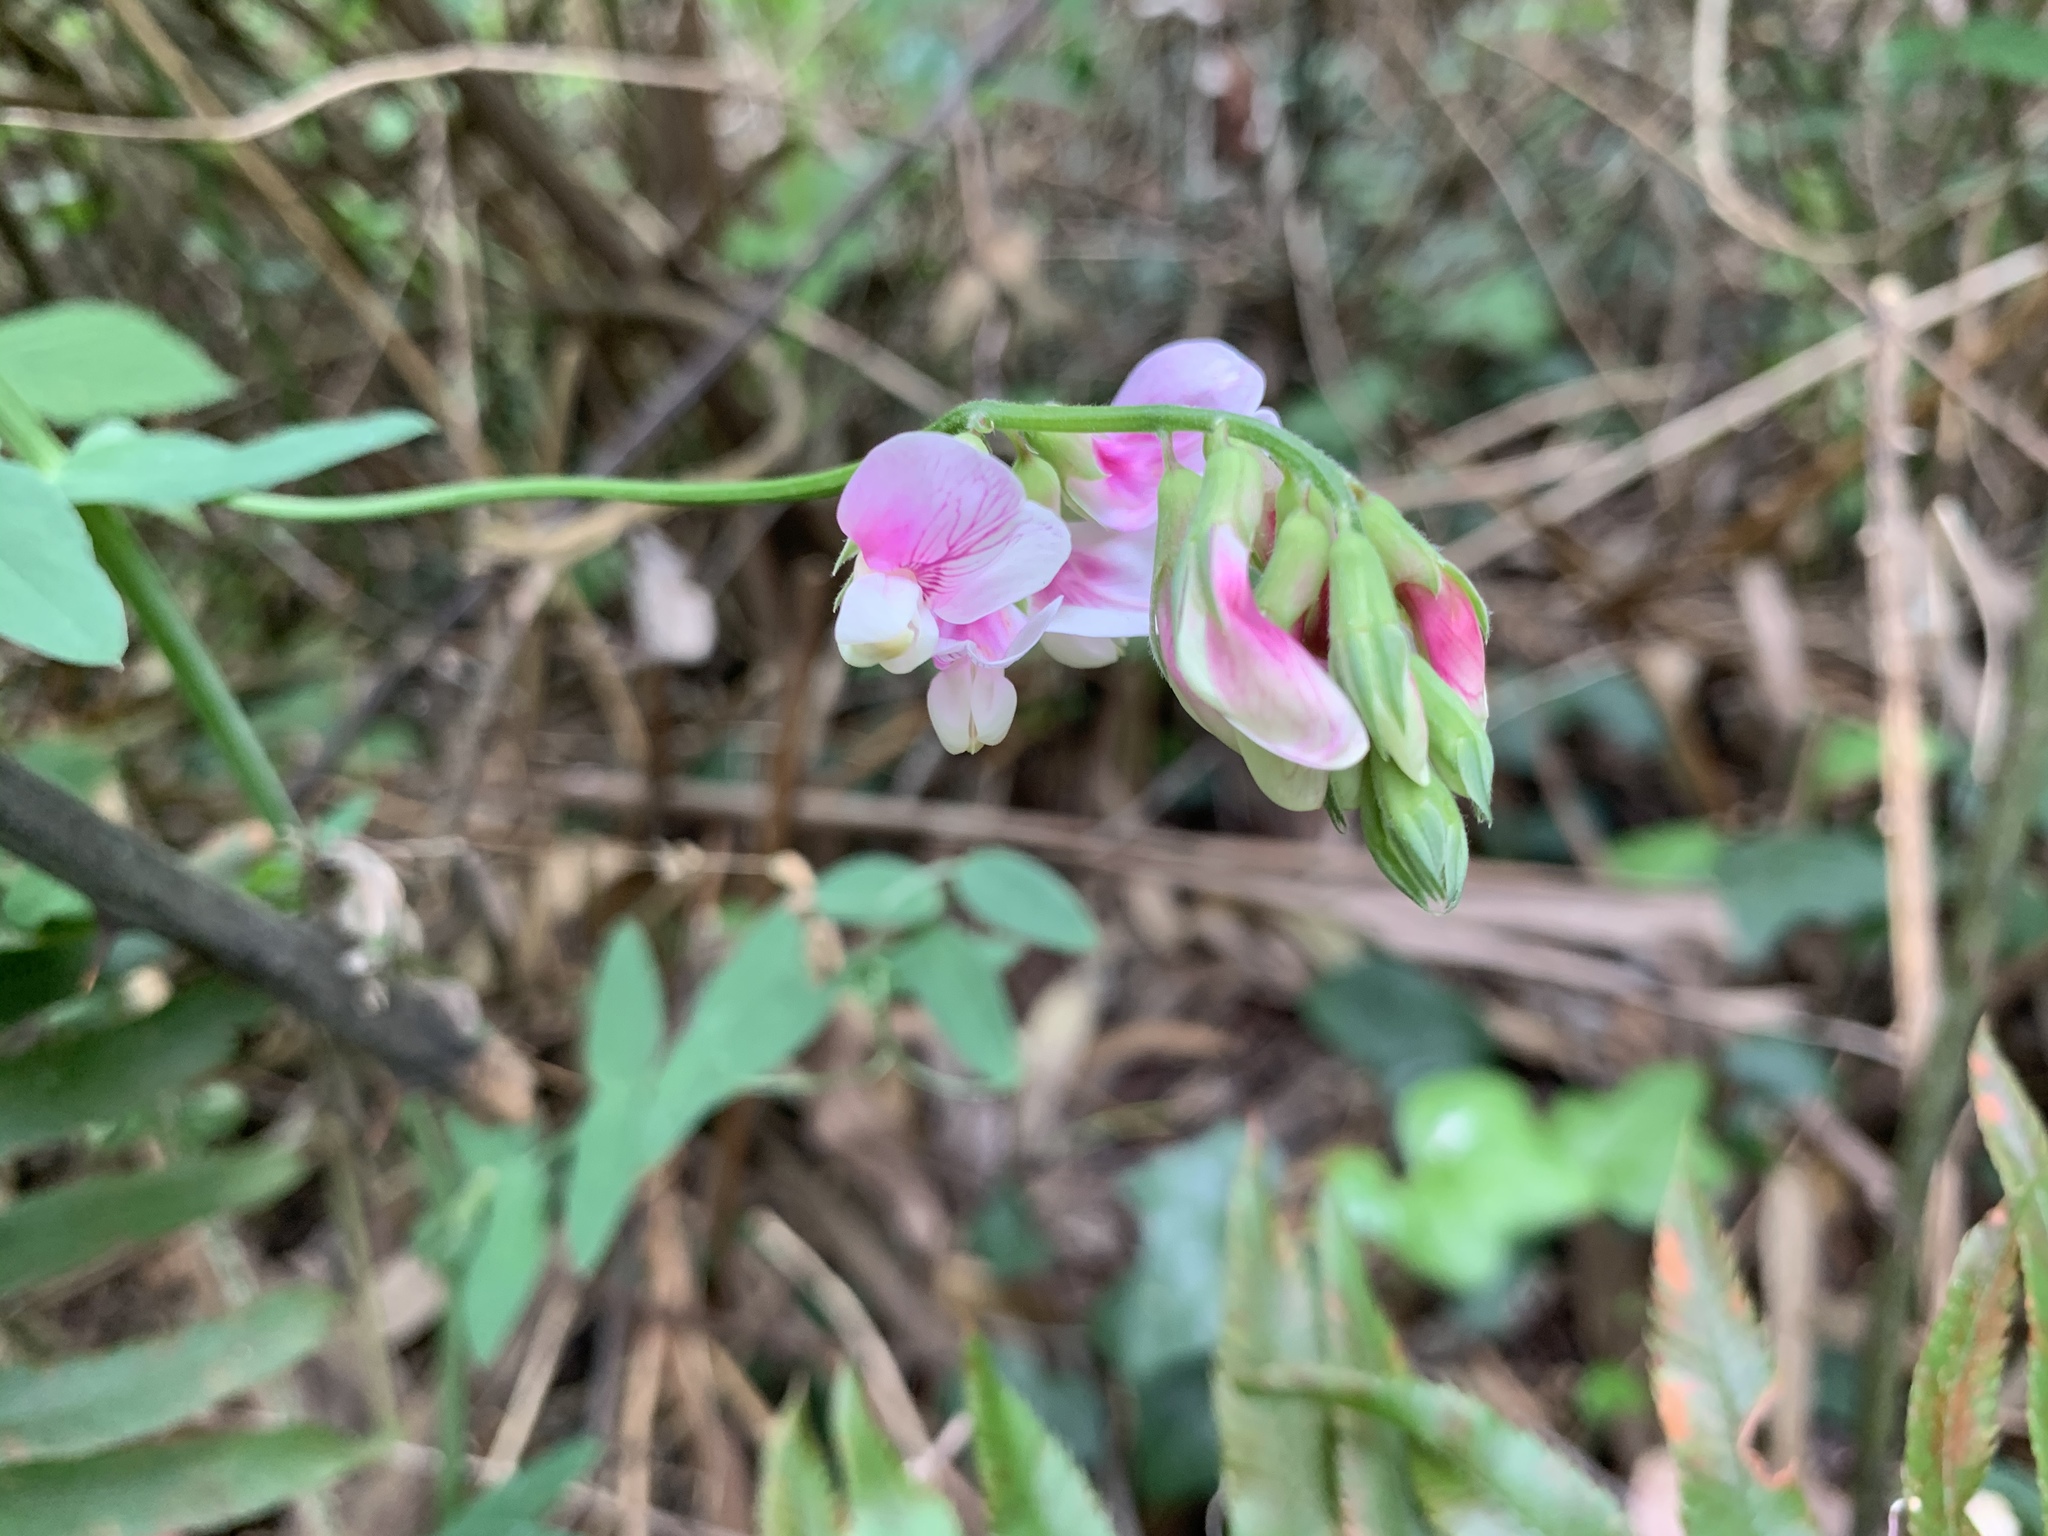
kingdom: Plantae
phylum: Tracheophyta
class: Magnoliopsida
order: Fabales
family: Fabaceae
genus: Lathyrus
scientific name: Lathyrus vestitus
